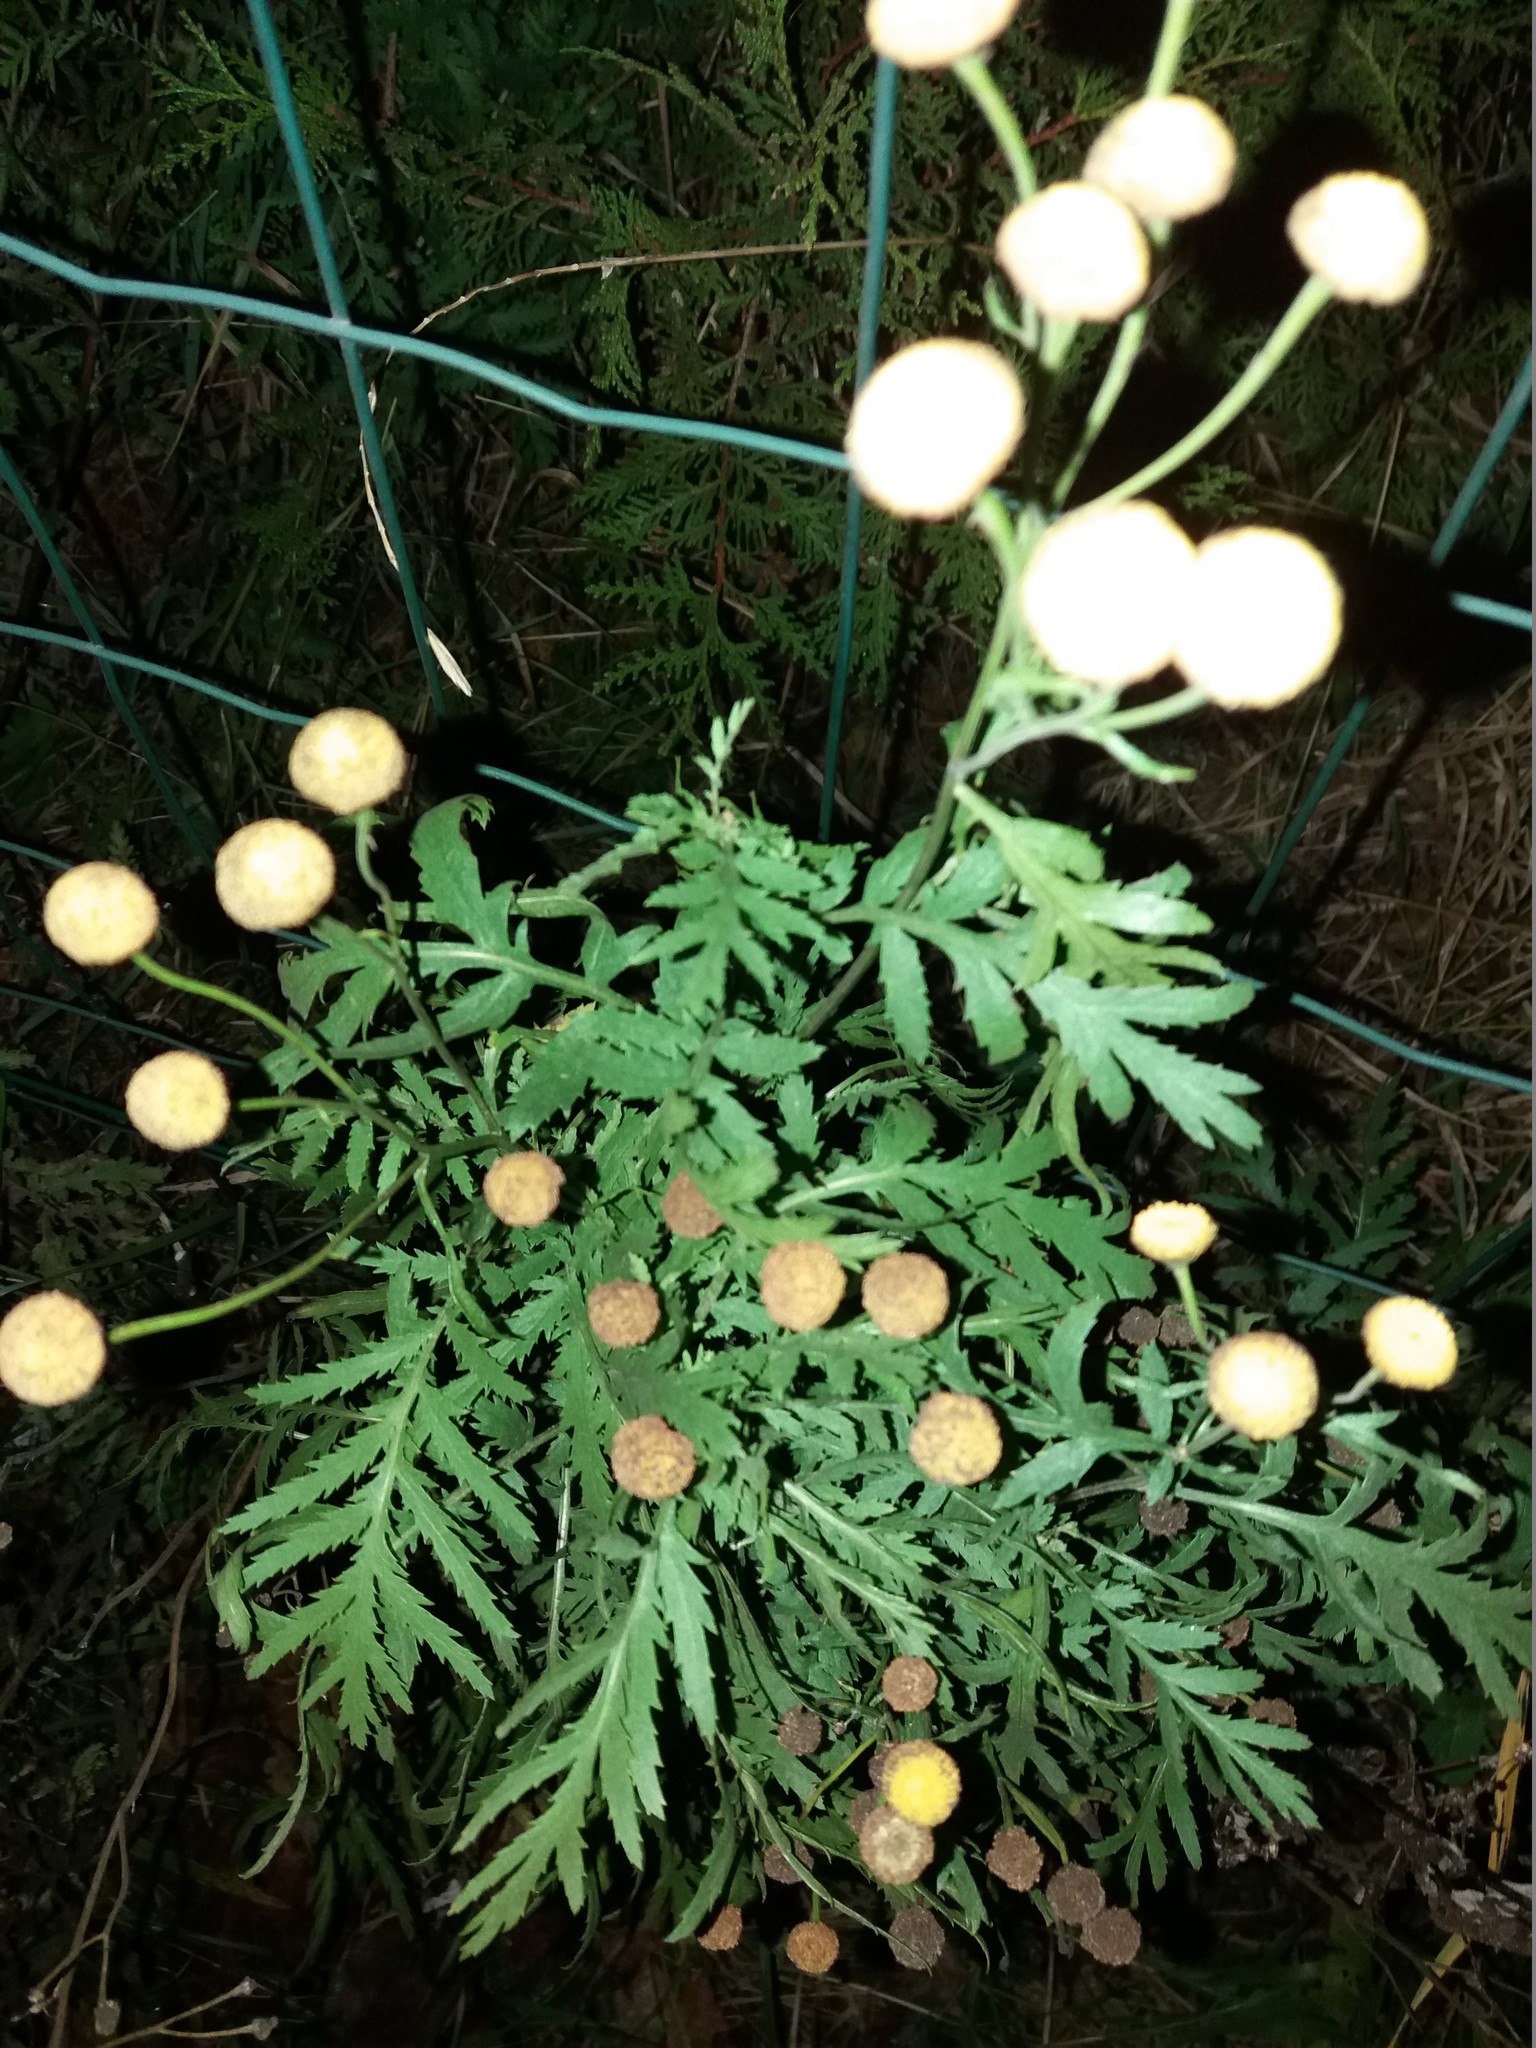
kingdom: Plantae
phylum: Tracheophyta
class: Magnoliopsida
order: Asterales
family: Asteraceae
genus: Tanacetum
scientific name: Tanacetum vulgare
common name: Common tansy
